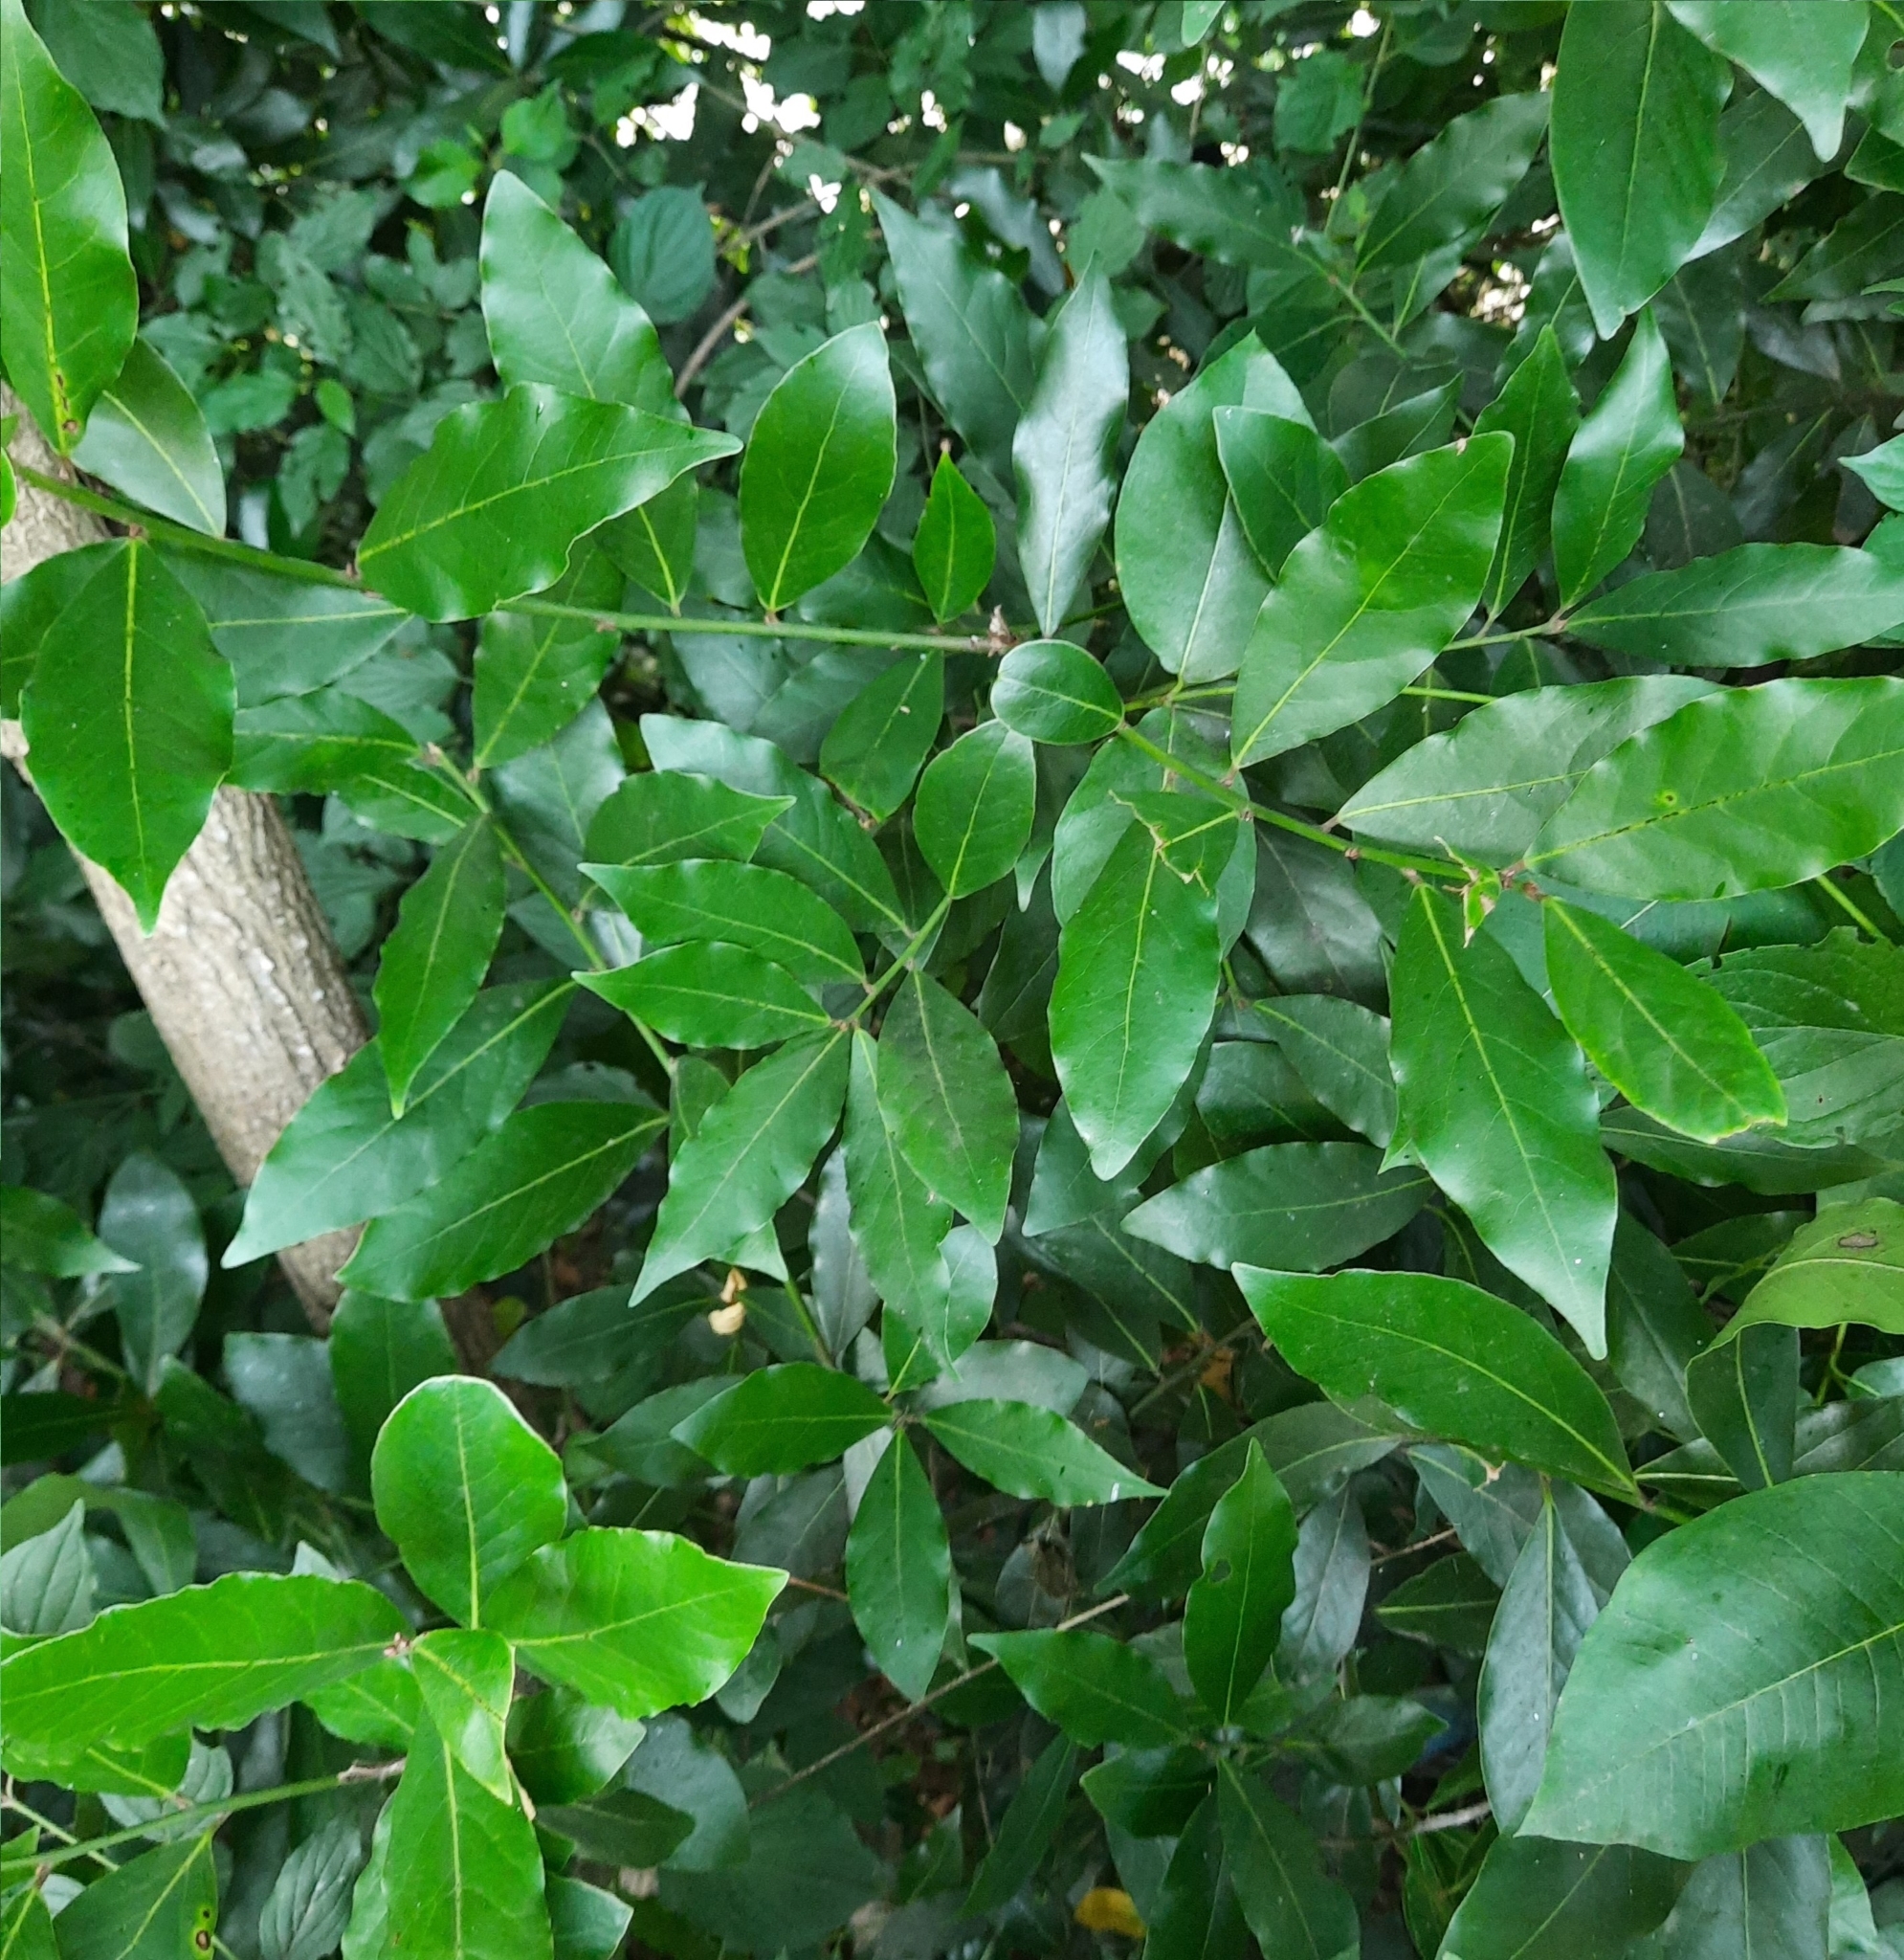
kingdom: Plantae
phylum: Tracheophyta
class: Magnoliopsida
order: Laurales
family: Lauraceae
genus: Laurus
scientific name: Laurus nobilis
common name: Bay
